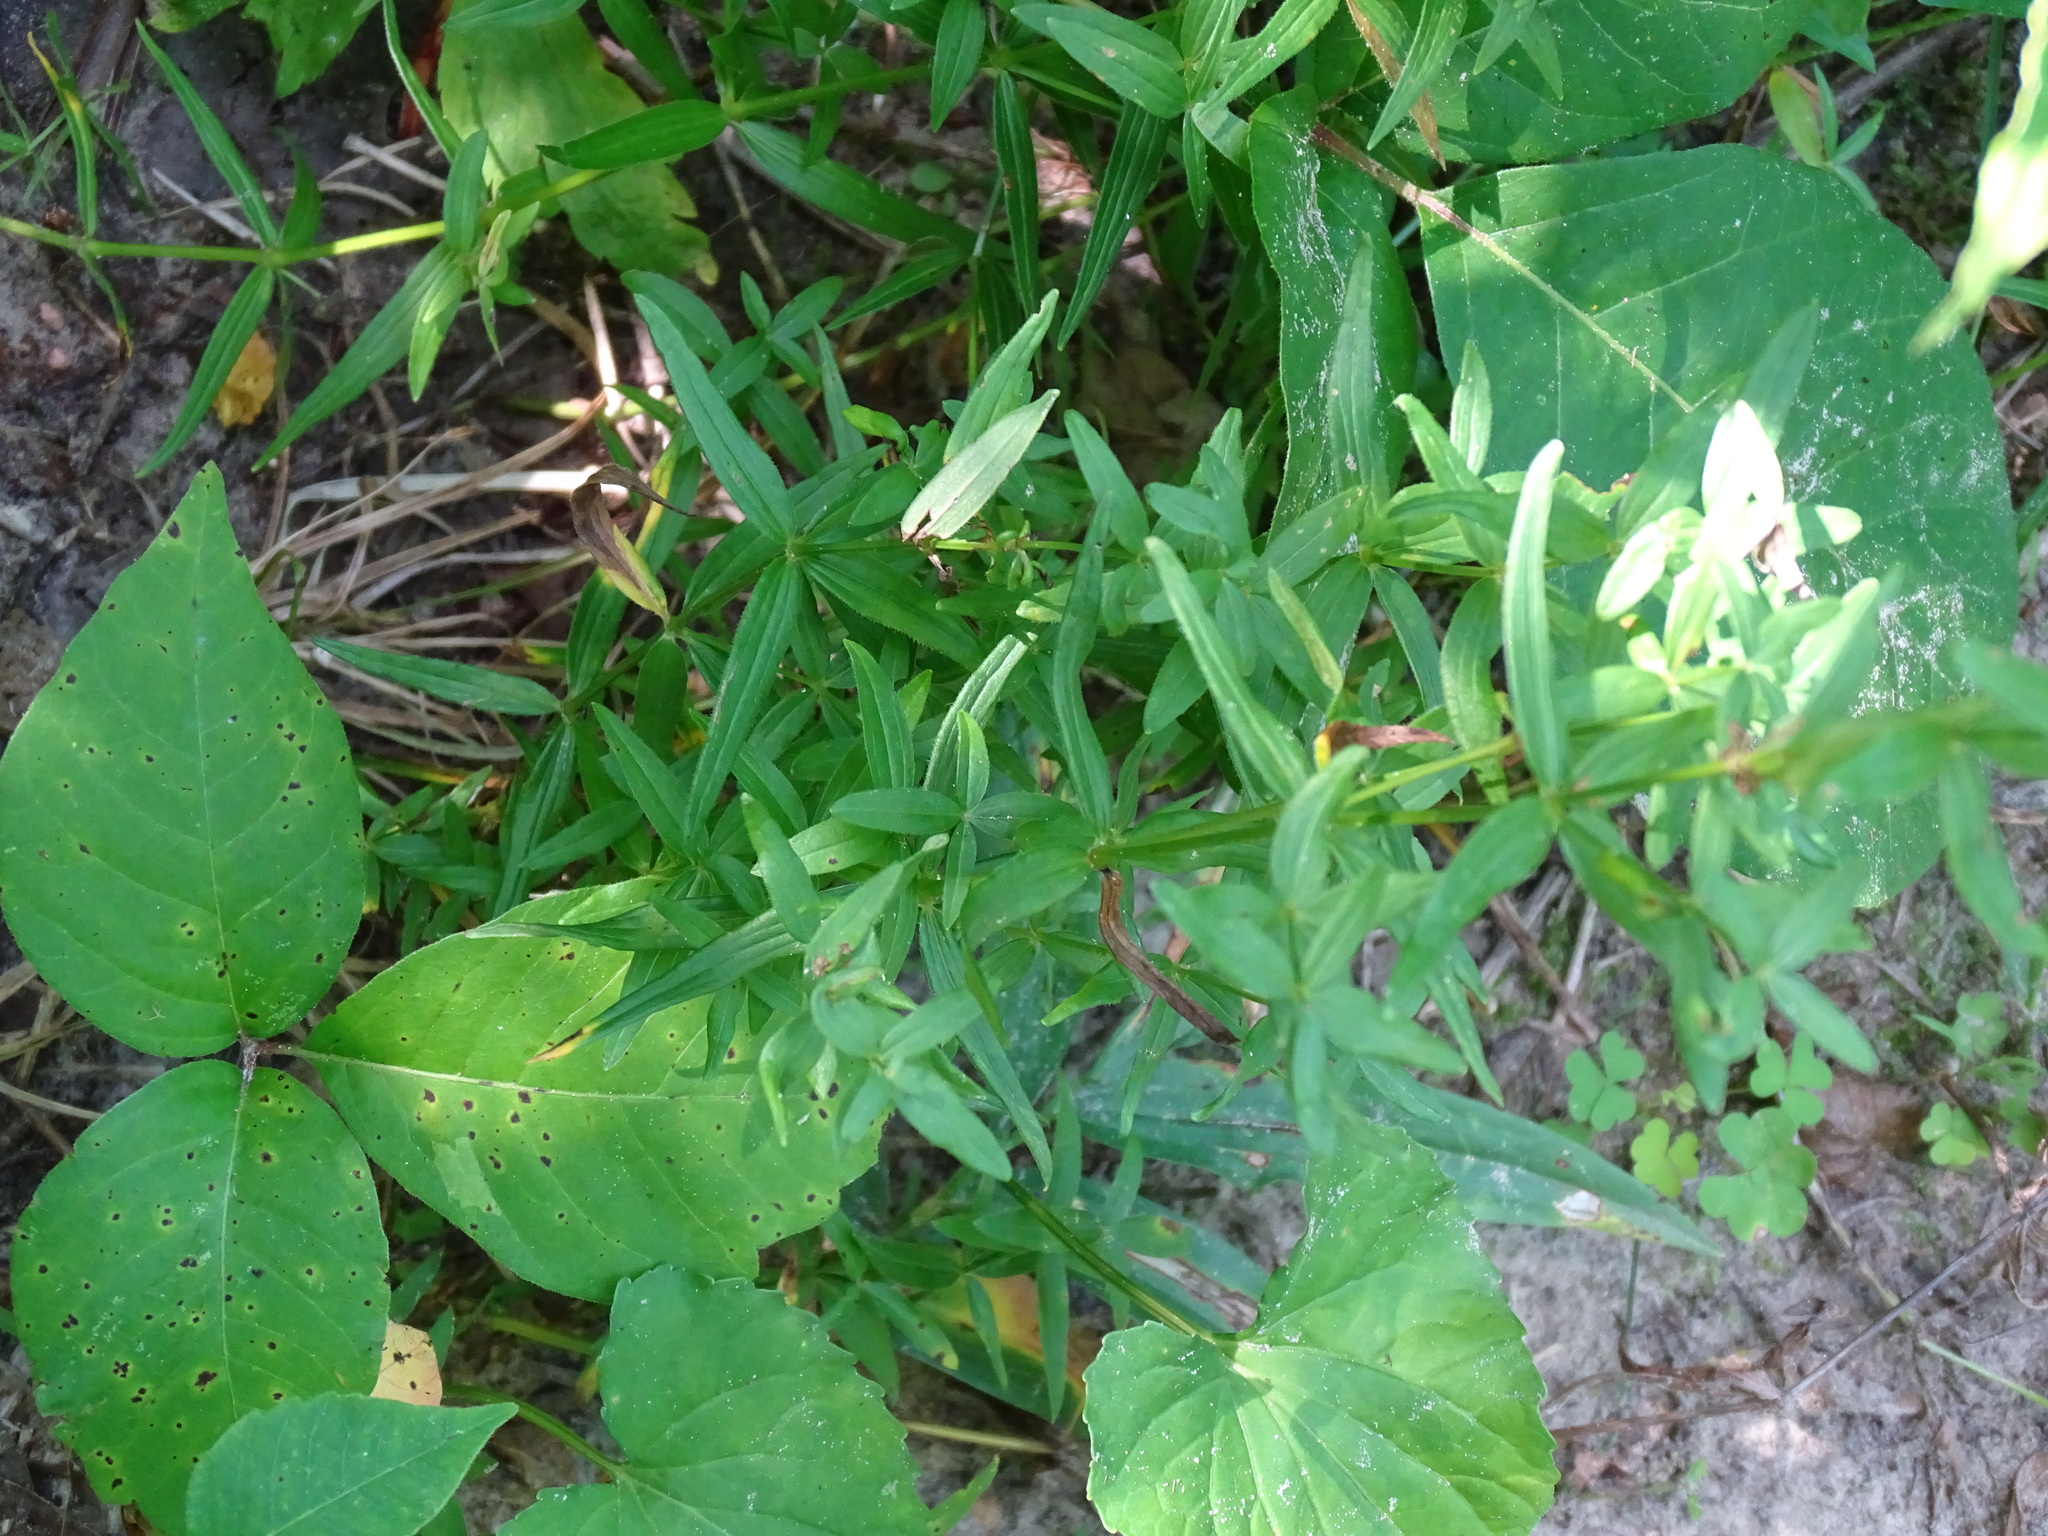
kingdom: Plantae
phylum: Tracheophyta
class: Magnoliopsida
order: Gentianales
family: Rubiaceae
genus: Galium
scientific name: Galium boreale
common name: Northern bedstraw
